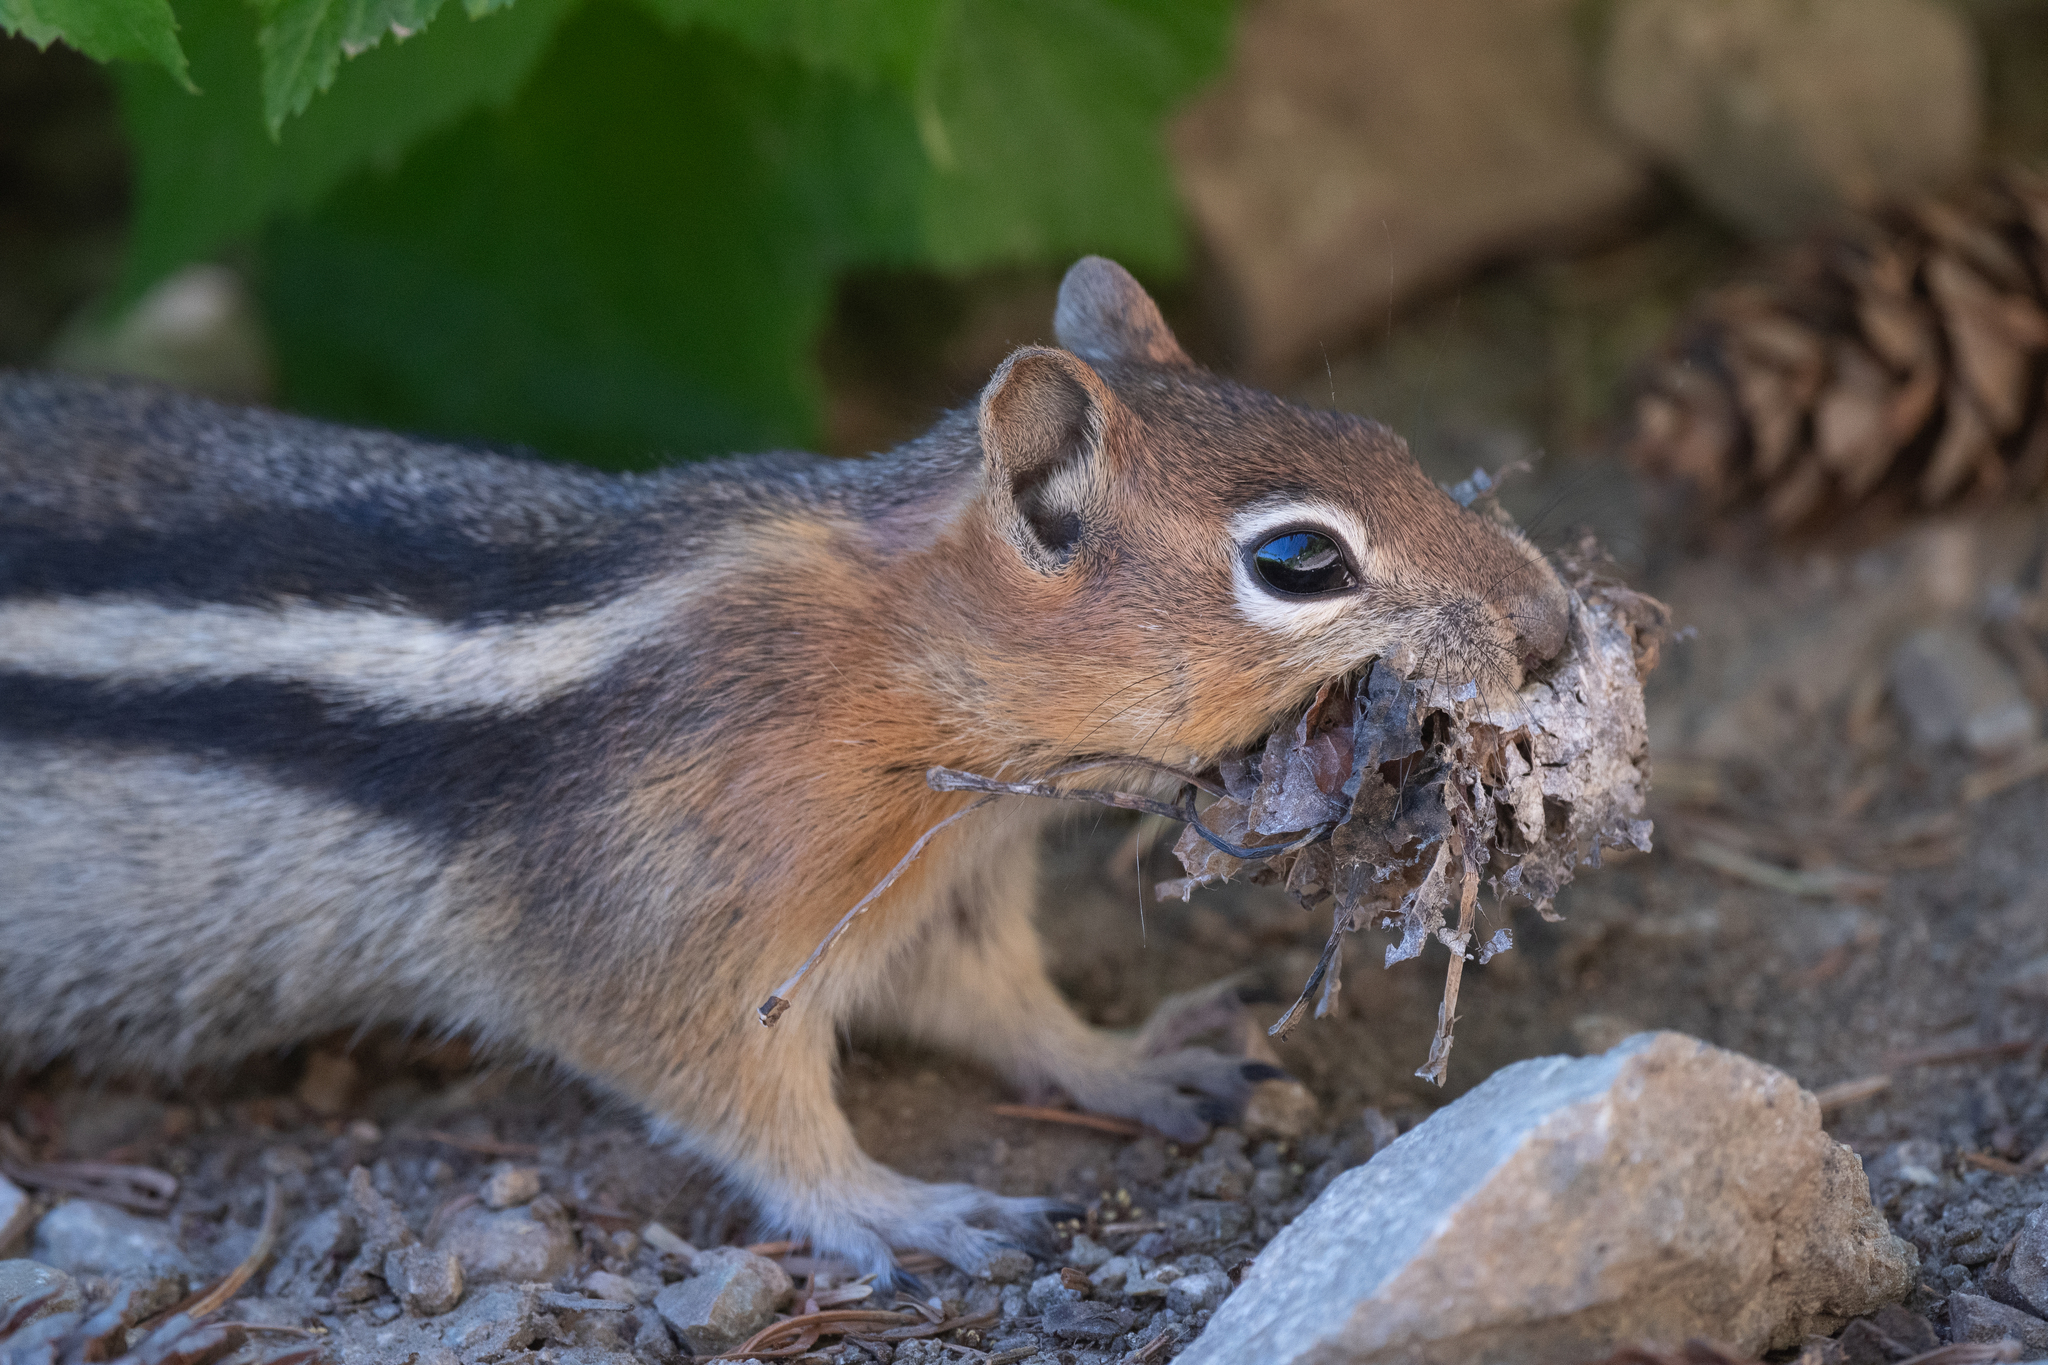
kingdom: Animalia
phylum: Chordata
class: Mammalia
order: Rodentia
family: Sciuridae
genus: Callospermophilus
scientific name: Callospermophilus lateralis
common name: Golden-mantled ground squirrel
